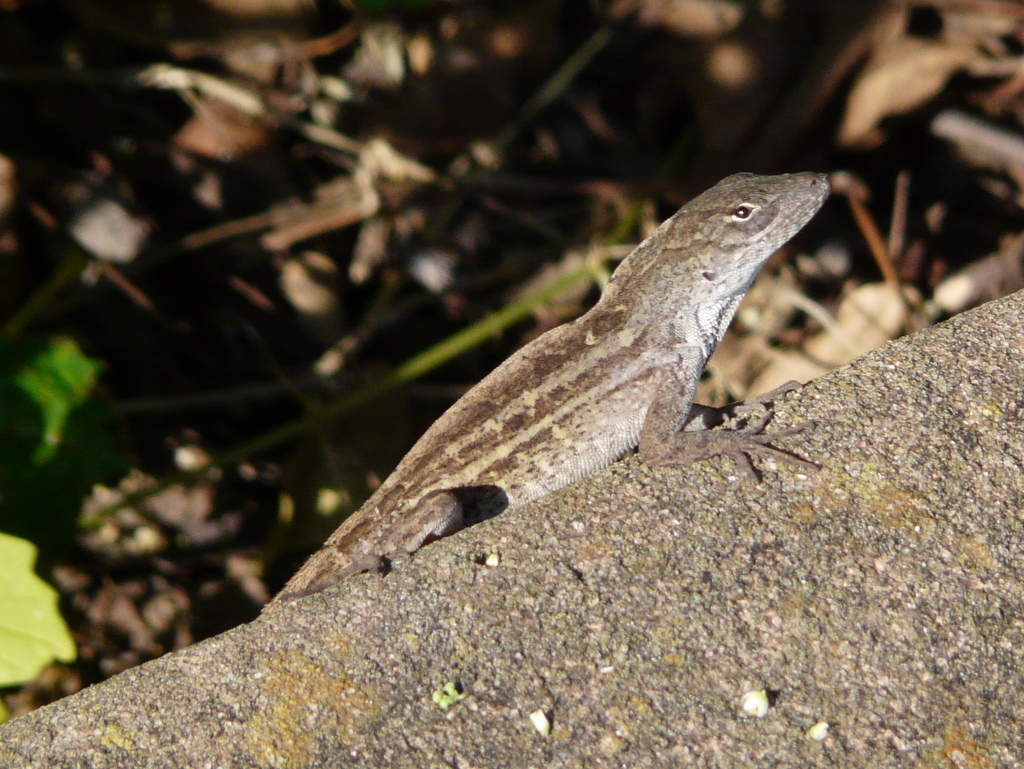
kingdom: Animalia
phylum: Chordata
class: Squamata
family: Dactyloidae
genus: Anolis
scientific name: Anolis sagrei
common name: Brown anole
